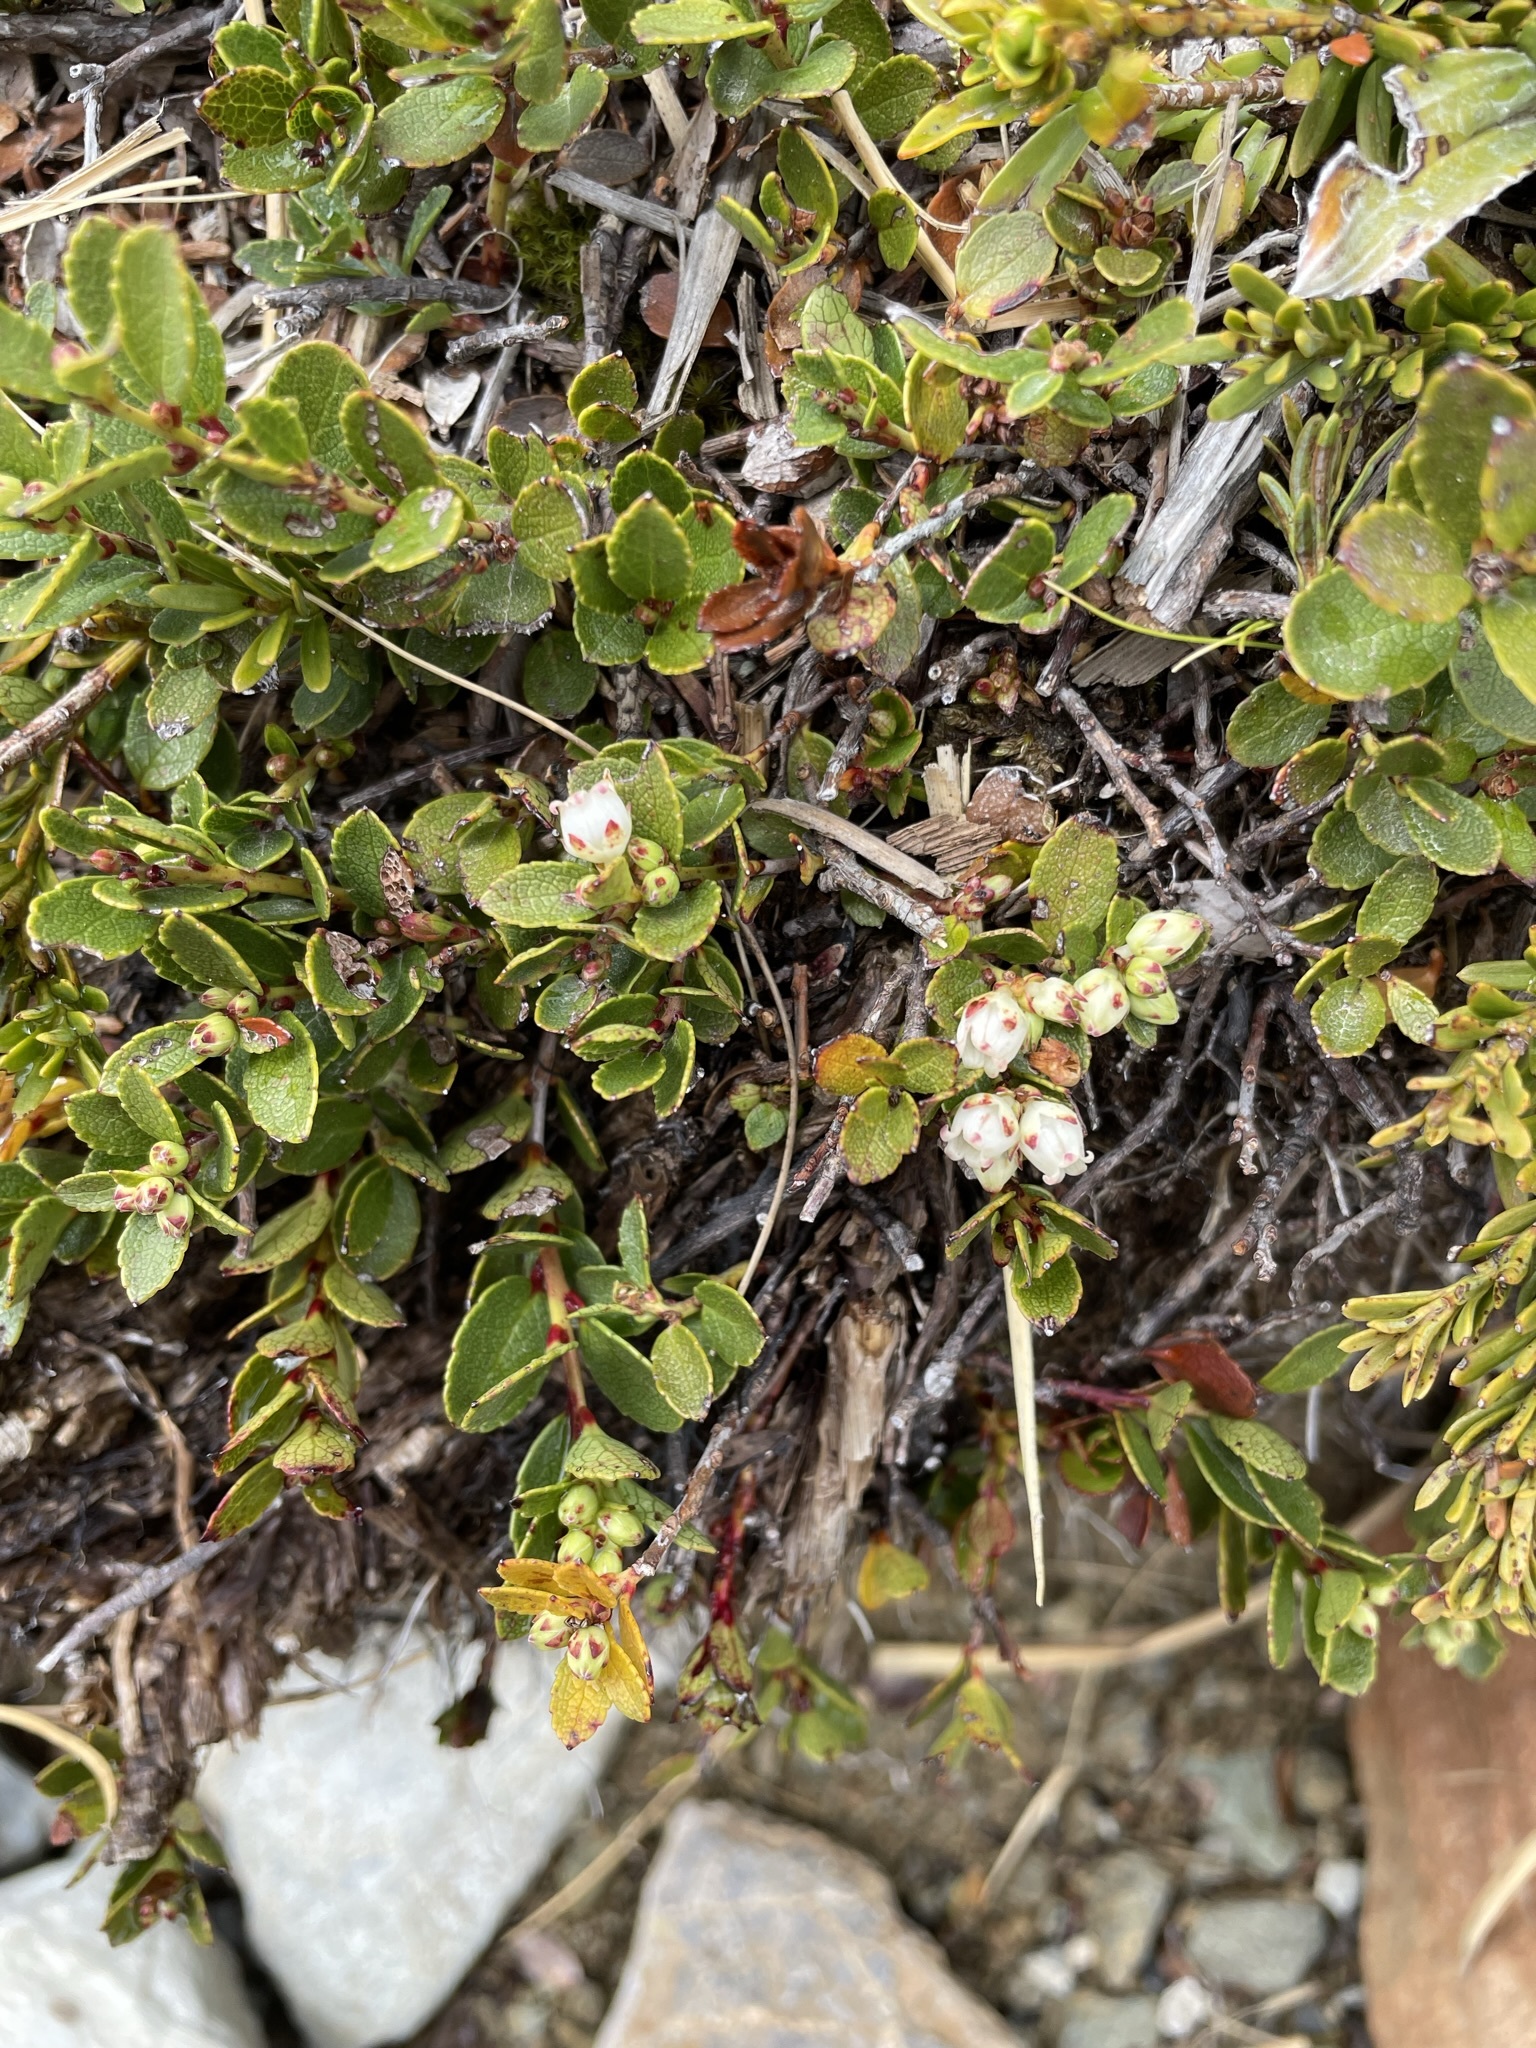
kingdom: Plantae
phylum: Tracheophyta
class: Magnoliopsida
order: Ericales
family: Ericaceae
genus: Gaultheria
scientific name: Gaultheria crassa
